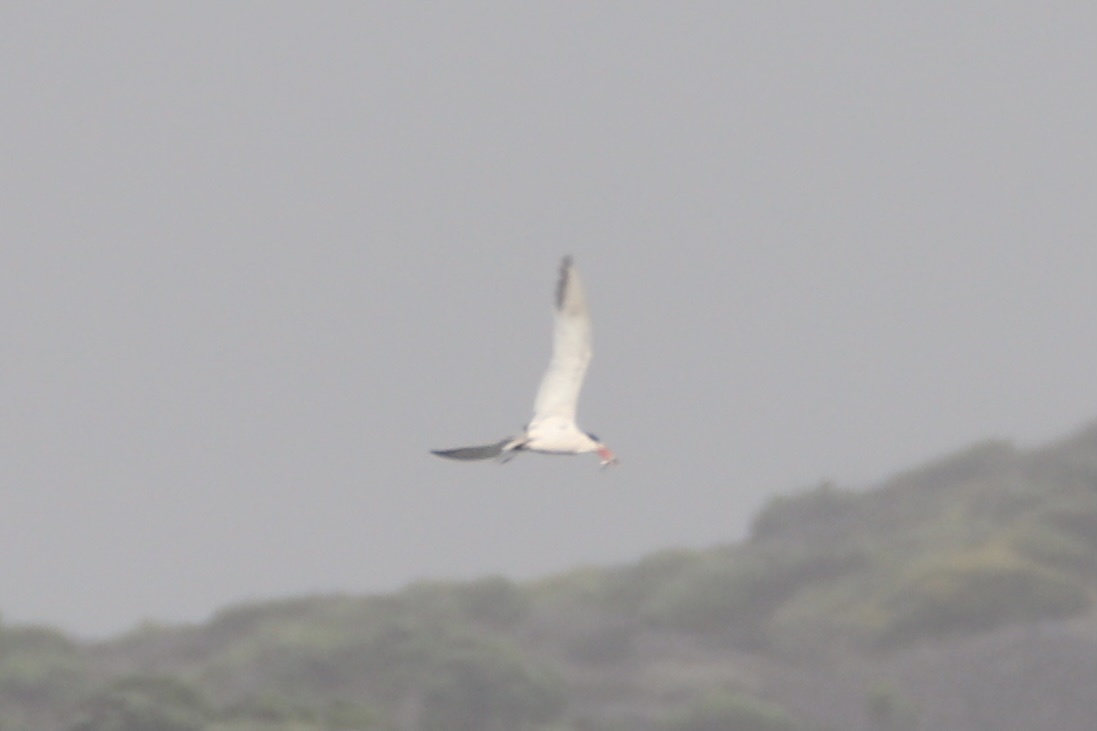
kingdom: Animalia
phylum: Chordata
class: Aves
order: Charadriiformes
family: Laridae
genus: Thalasseus
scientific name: Thalasseus maximus
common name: Royal tern
